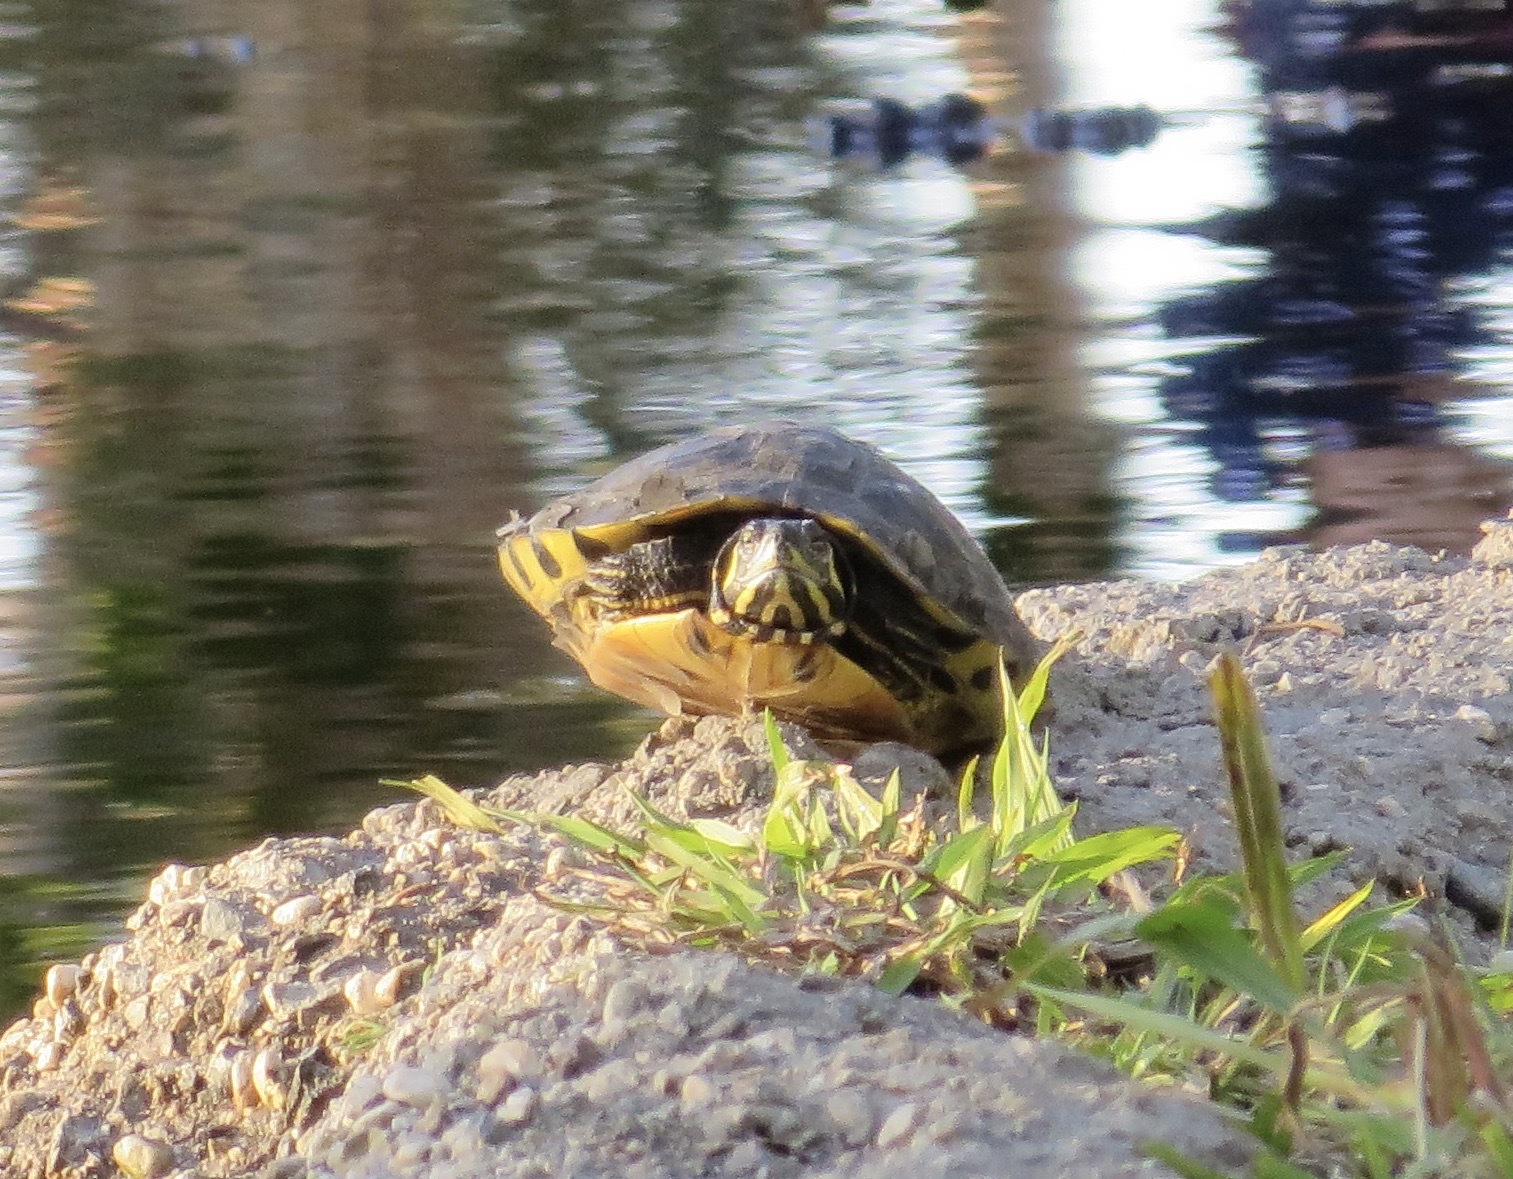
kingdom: Animalia
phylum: Chordata
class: Testudines
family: Emydidae
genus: Trachemys
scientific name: Trachemys scripta
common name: Slider
